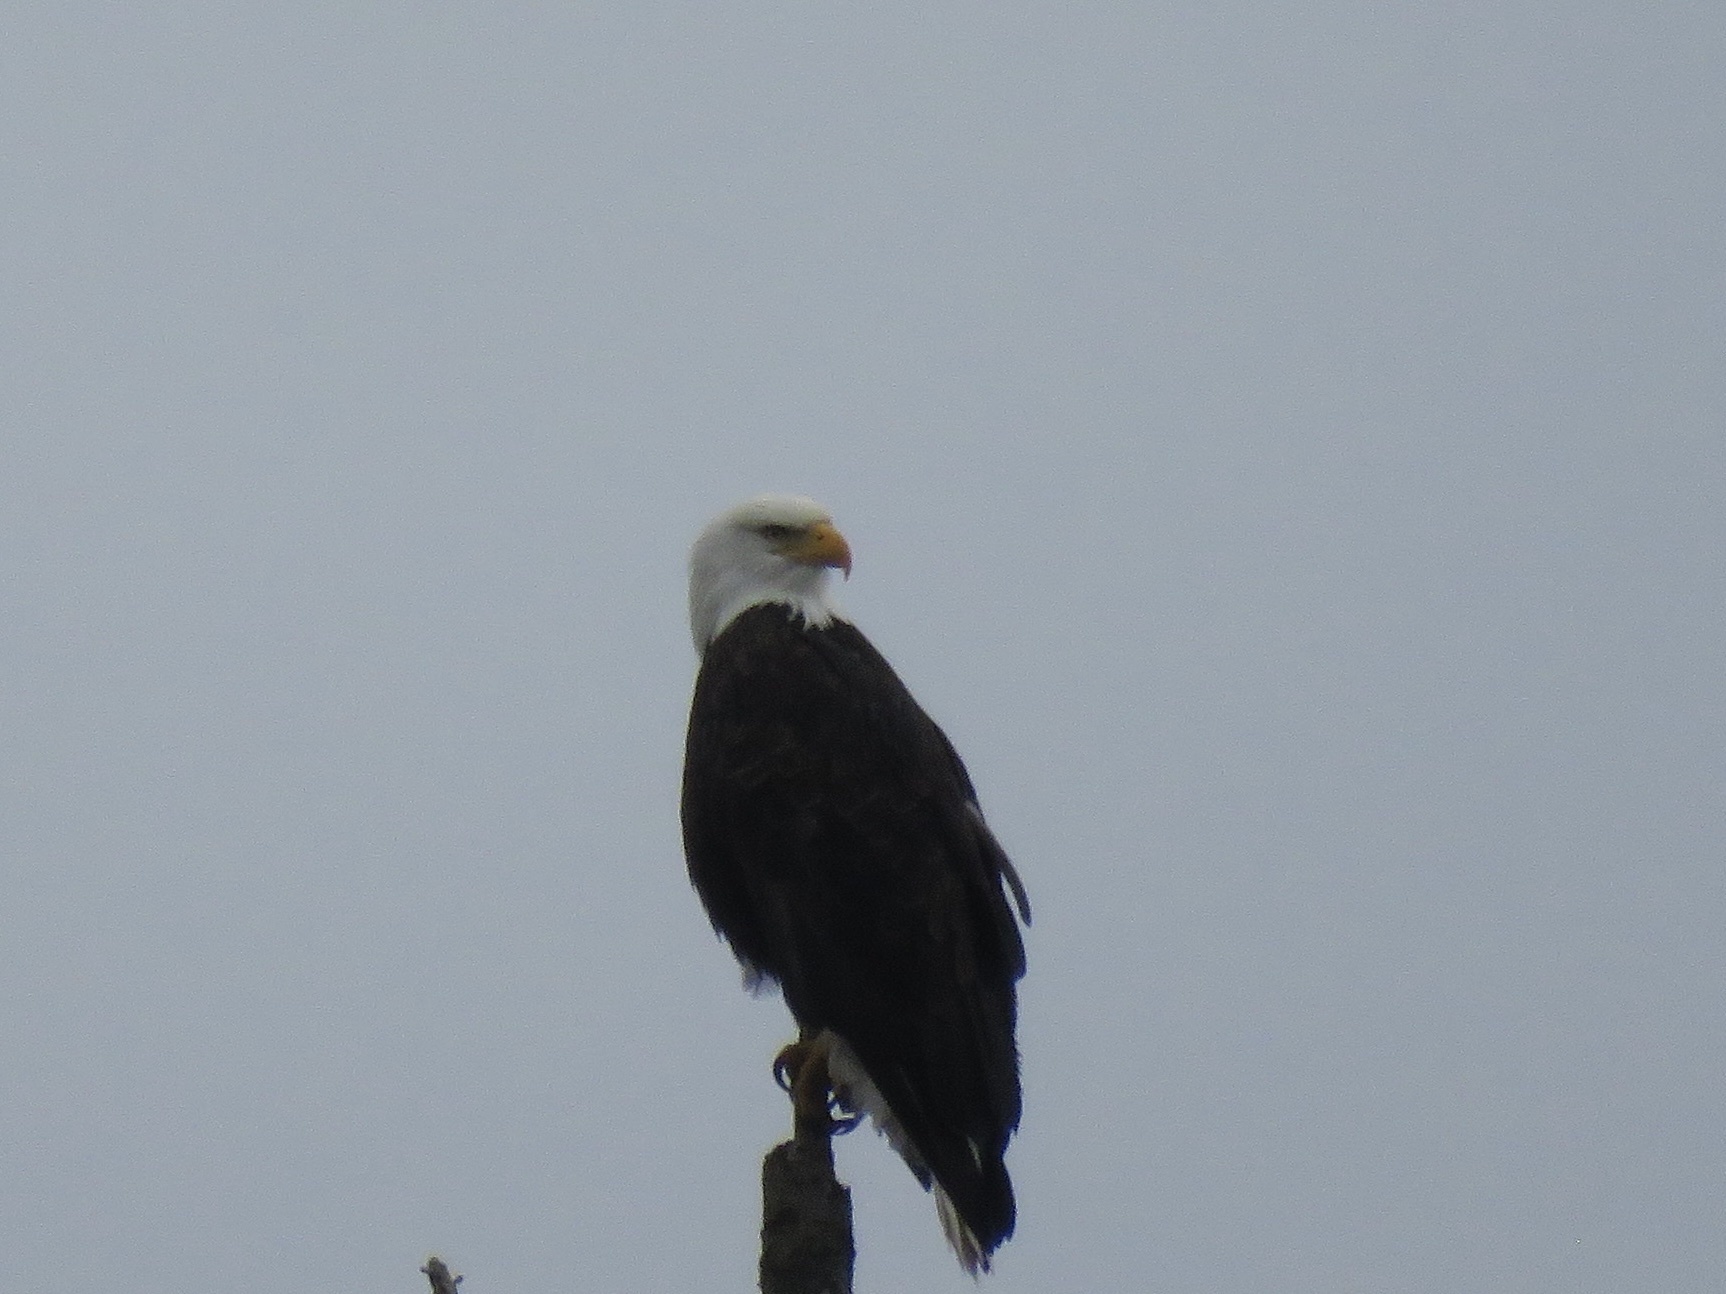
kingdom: Animalia
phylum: Chordata
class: Aves
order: Accipitriformes
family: Accipitridae
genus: Haliaeetus
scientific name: Haliaeetus leucocephalus
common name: Bald eagle
